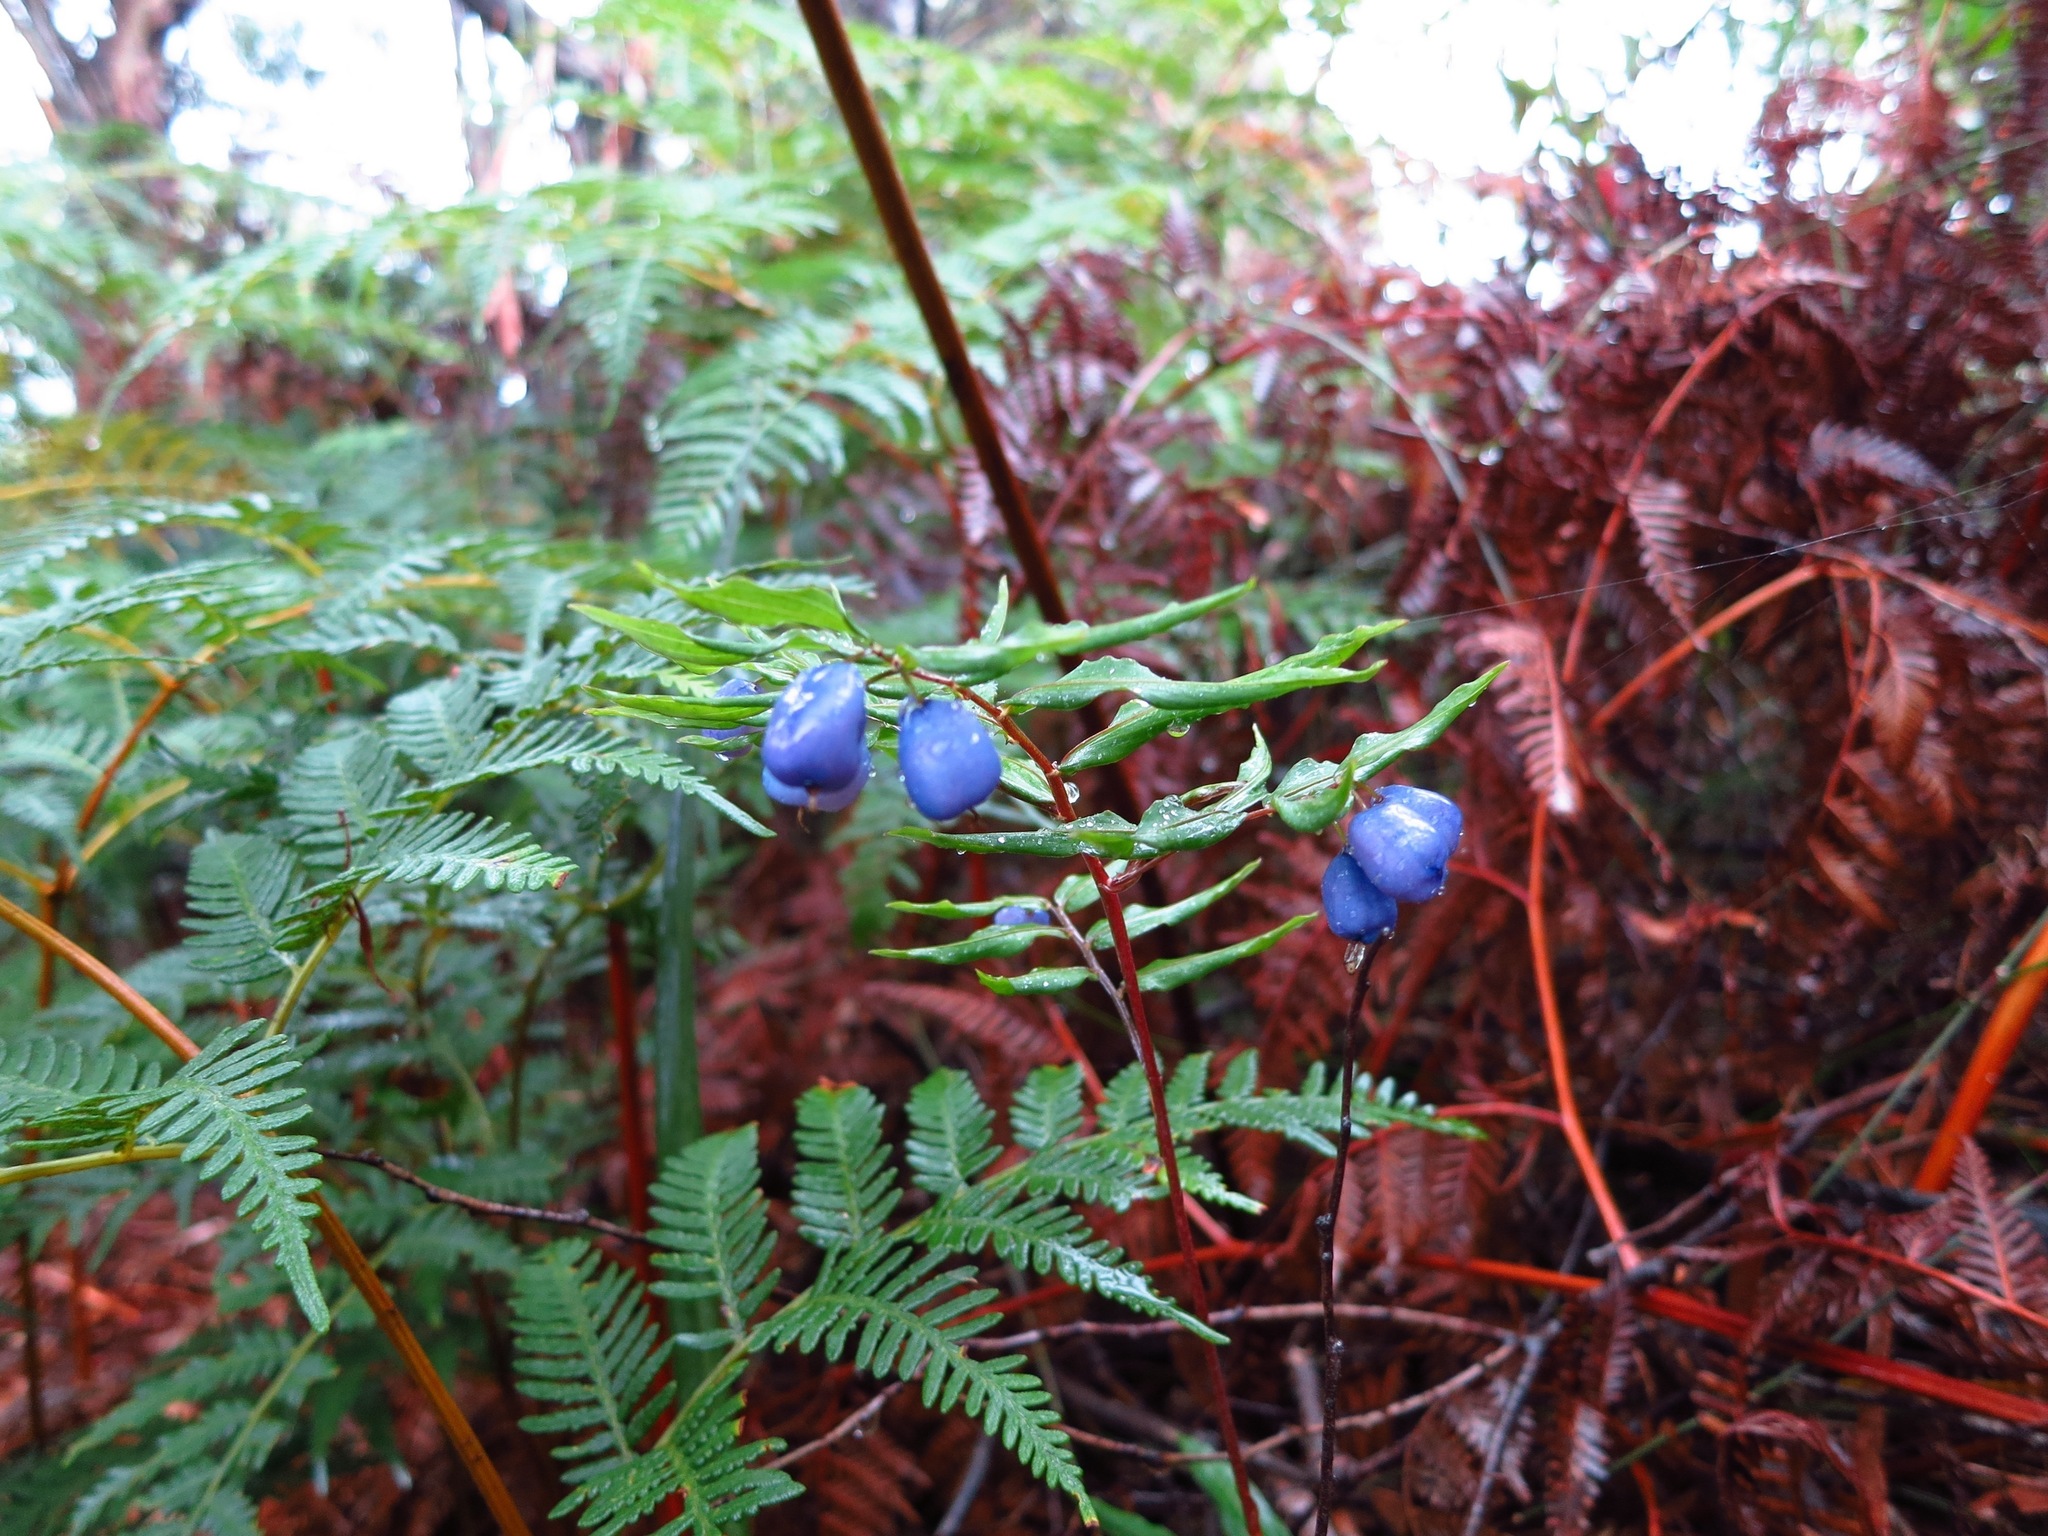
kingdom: Plantae
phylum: Tracheophyta
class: Liliopsida
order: Liliales
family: Alstroemeriaceae
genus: Drymophila
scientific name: Drymophila cyanocarpa
